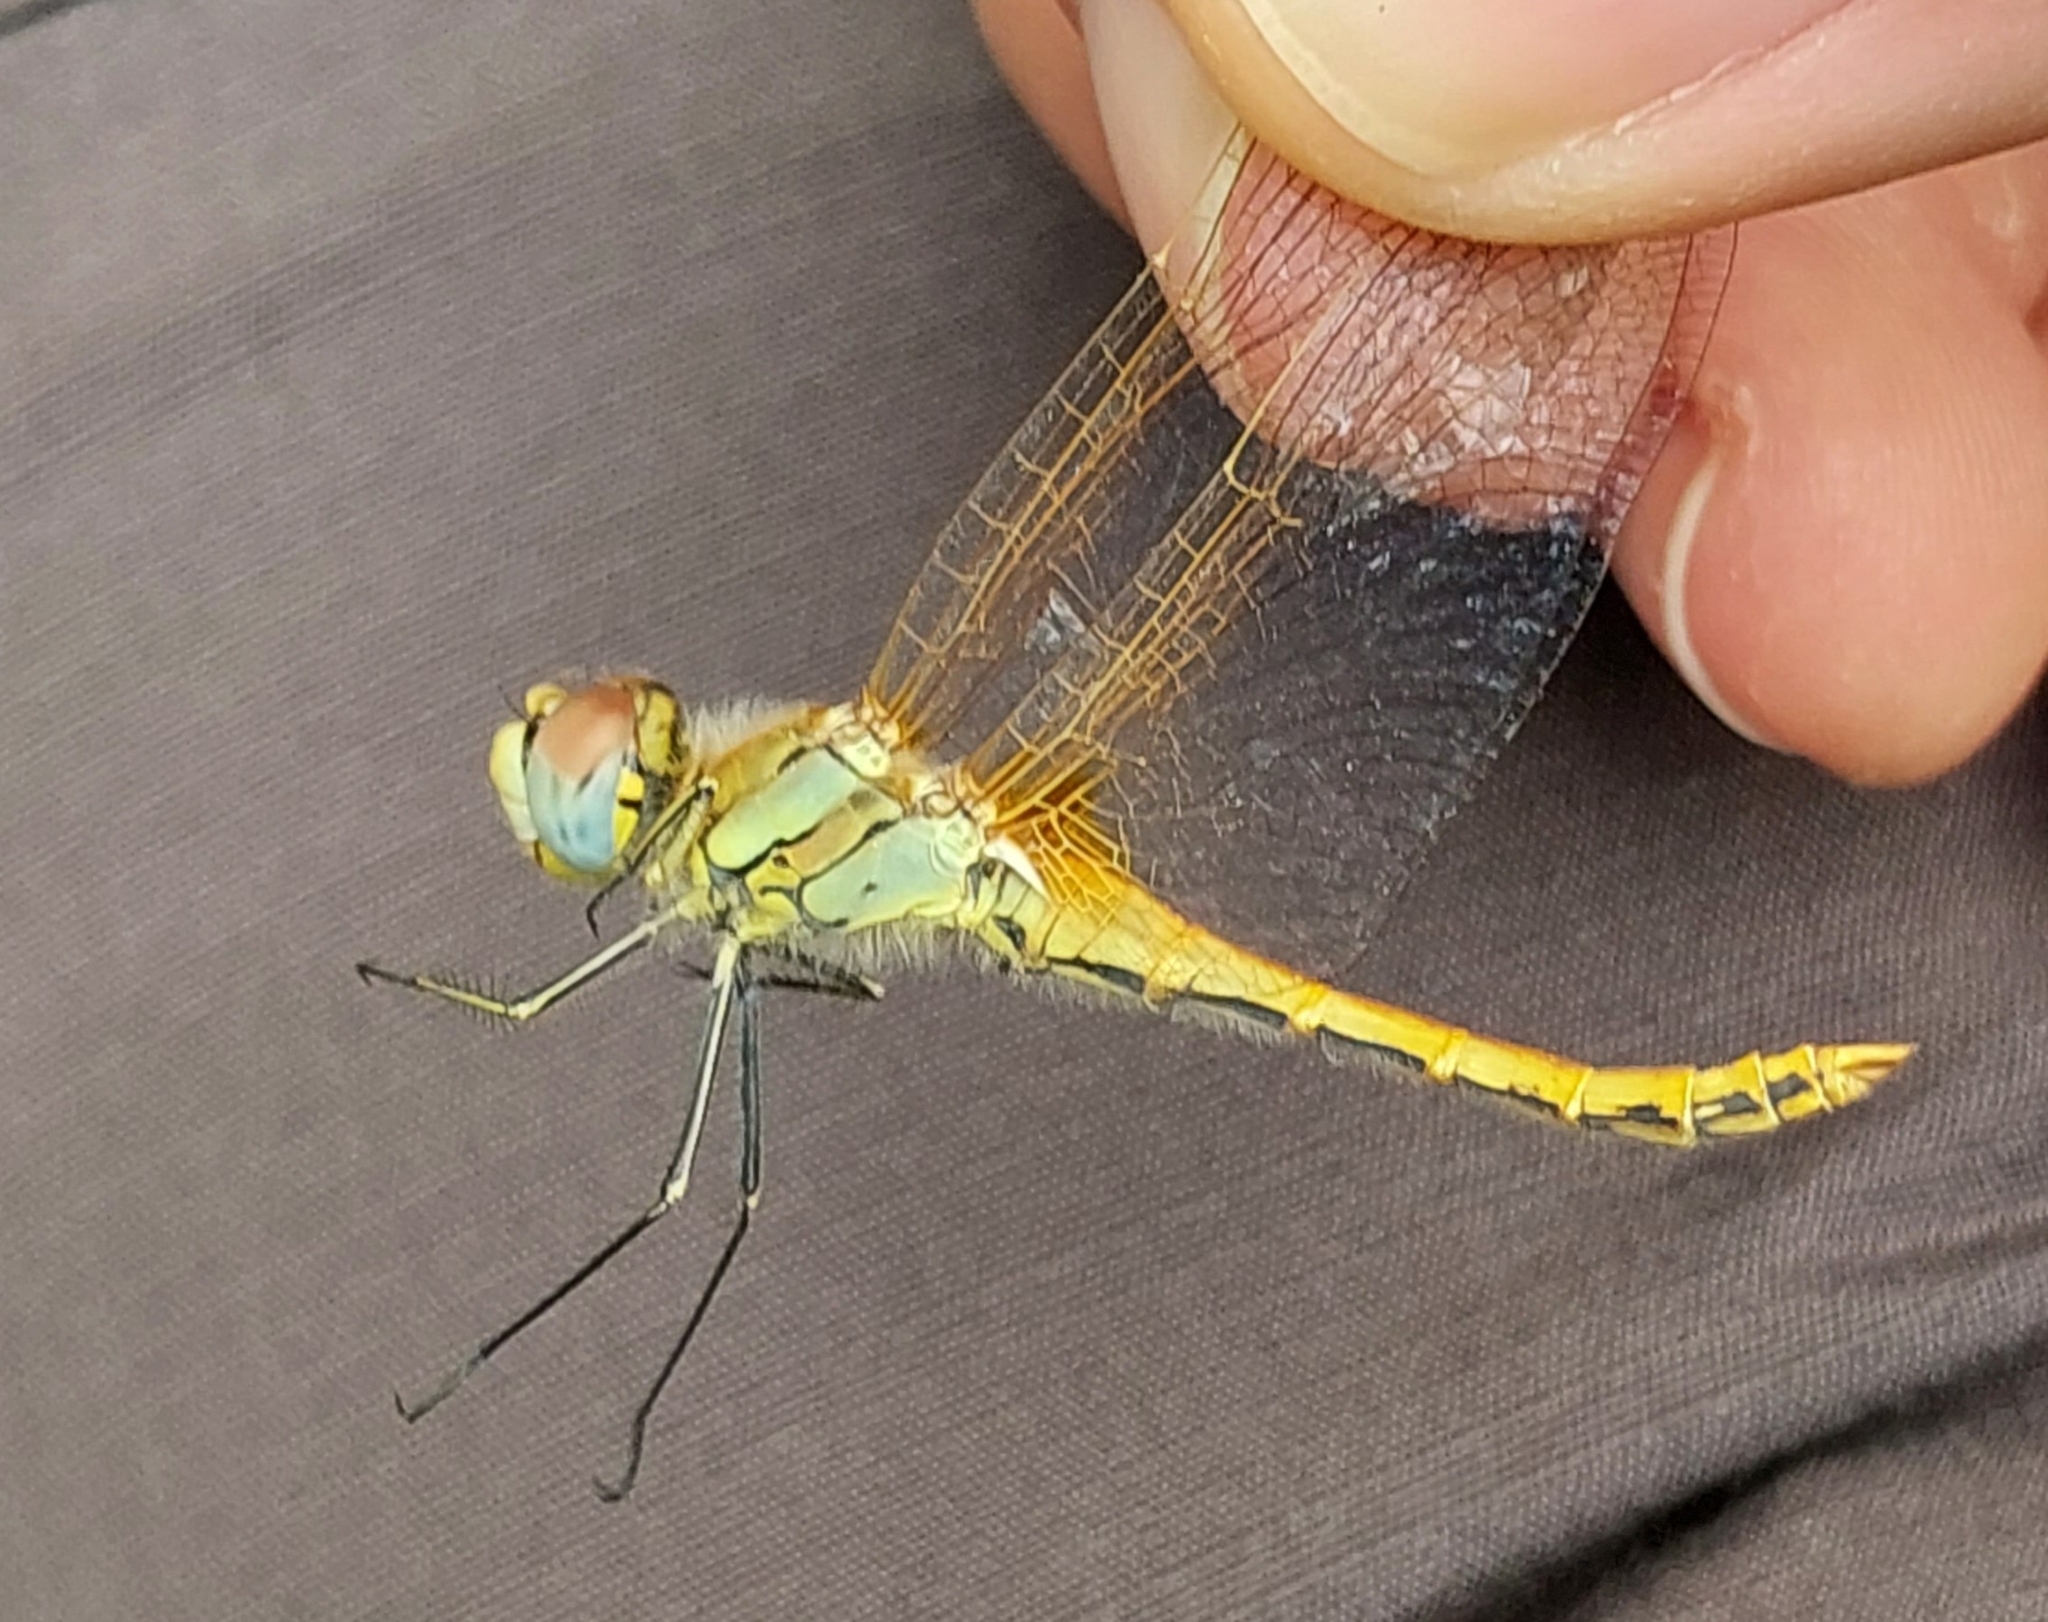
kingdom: Animalia
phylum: Arthropoda
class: Insecta
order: Odonata
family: Libellulidae
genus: Sympetrum
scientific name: Sympetrum fonscolombii
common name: Red-veined darter
